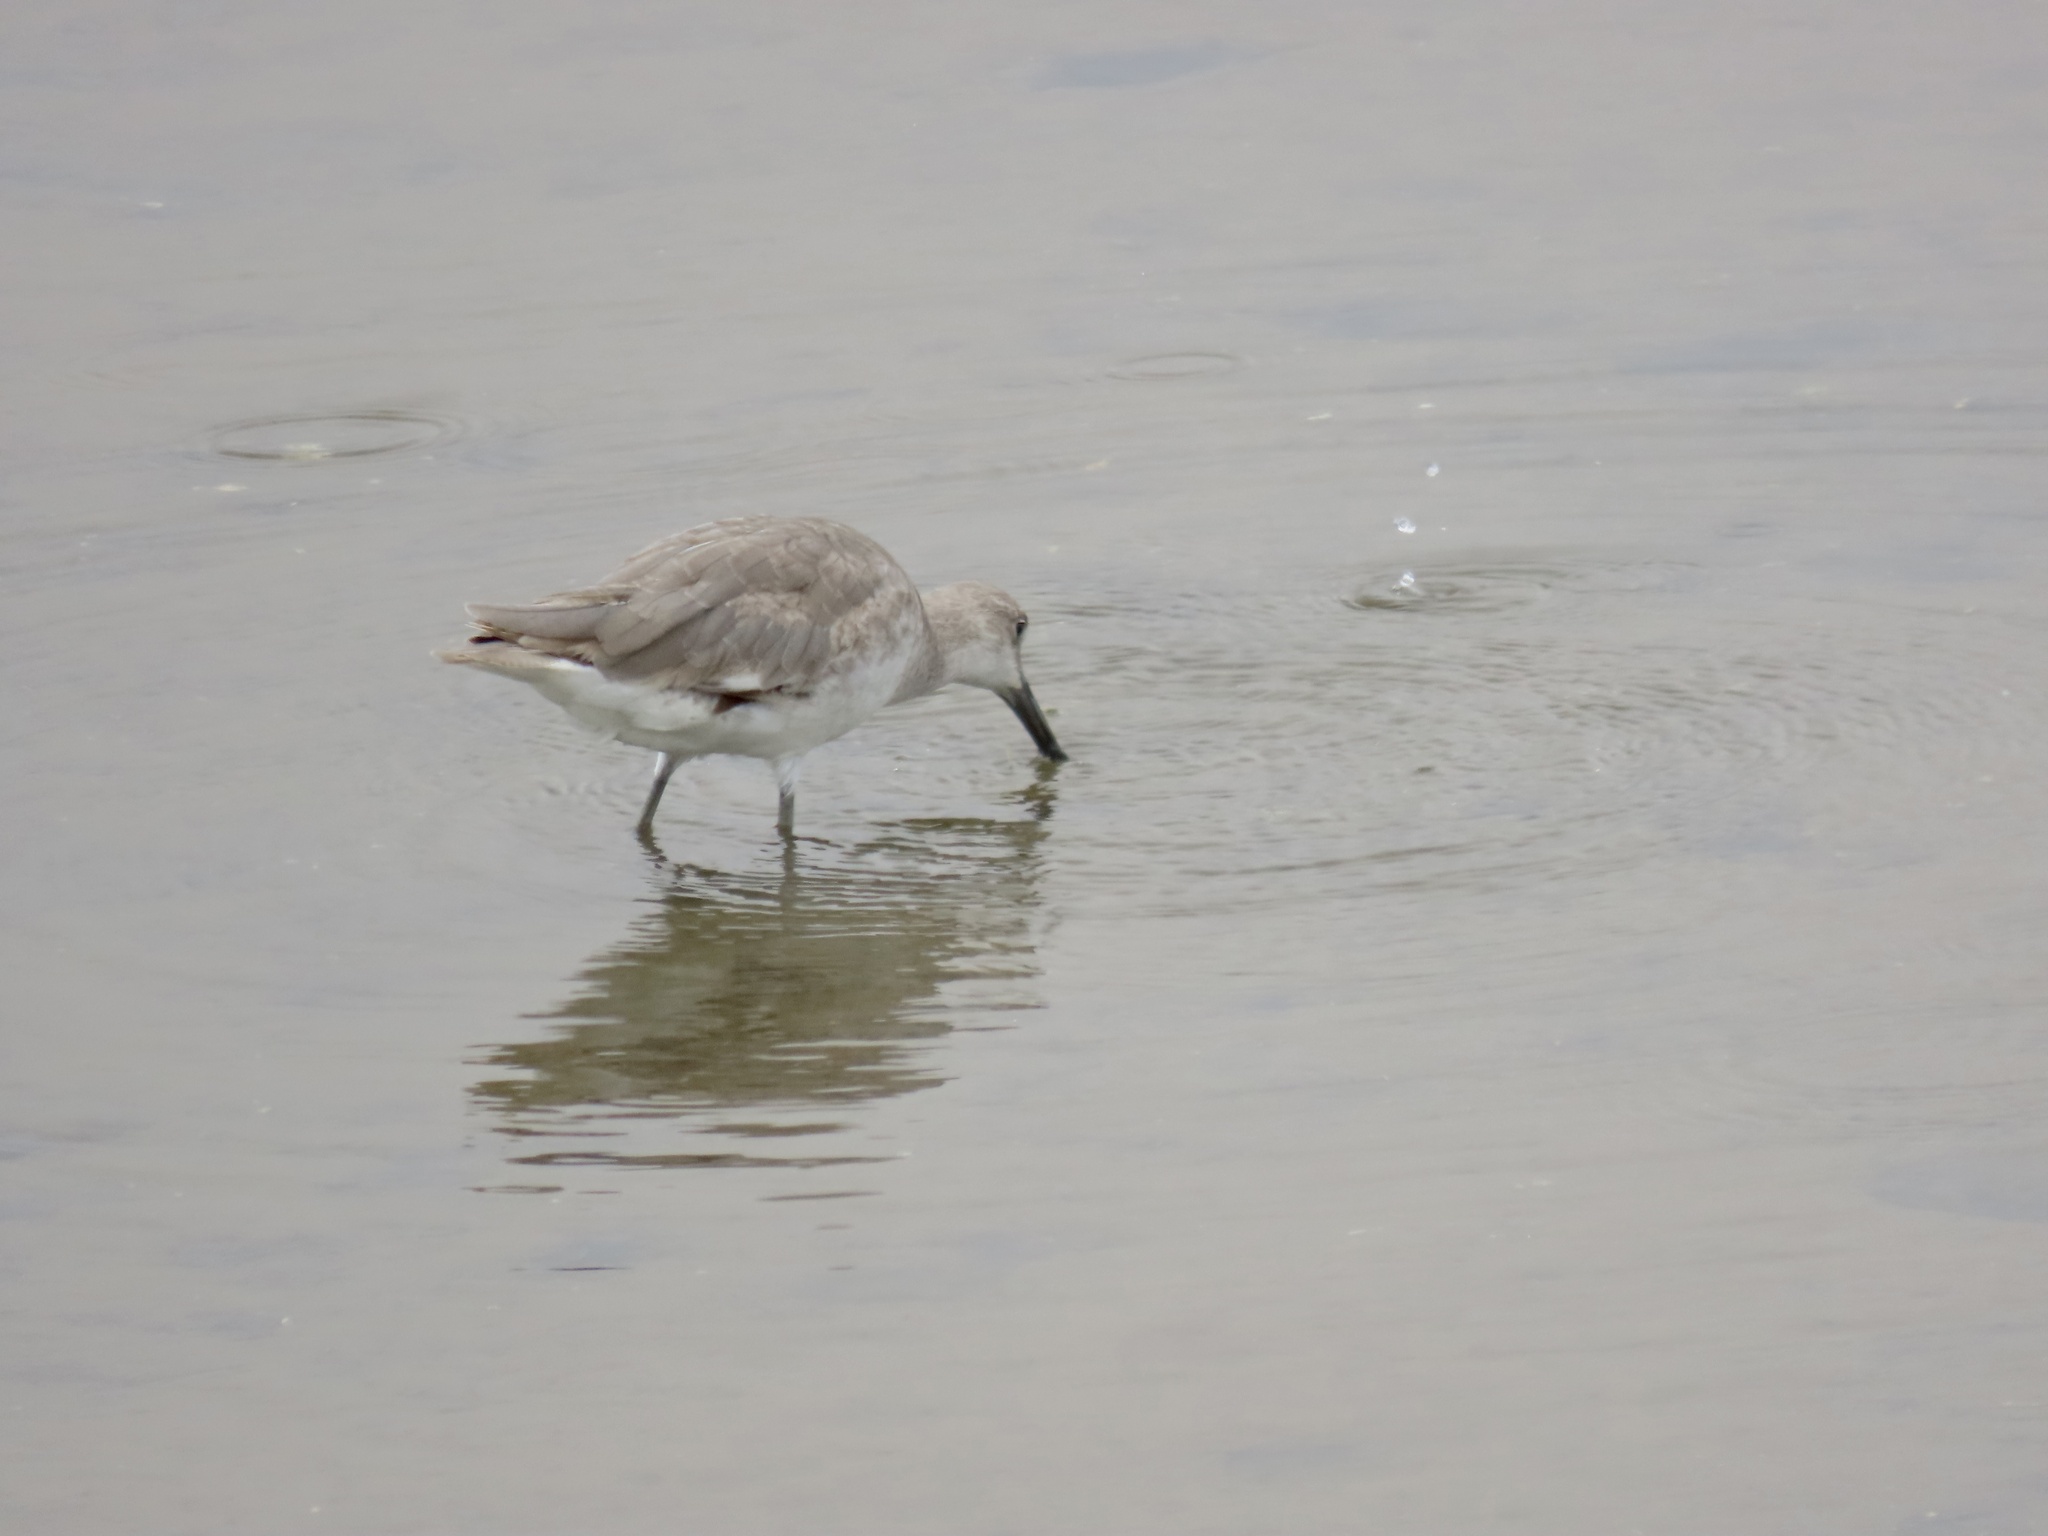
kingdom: Animalia
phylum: Chordata
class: Aves
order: Charadriiformes
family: Scolopacidae
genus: Tringa
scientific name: Tringa semipalmata
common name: Willet
